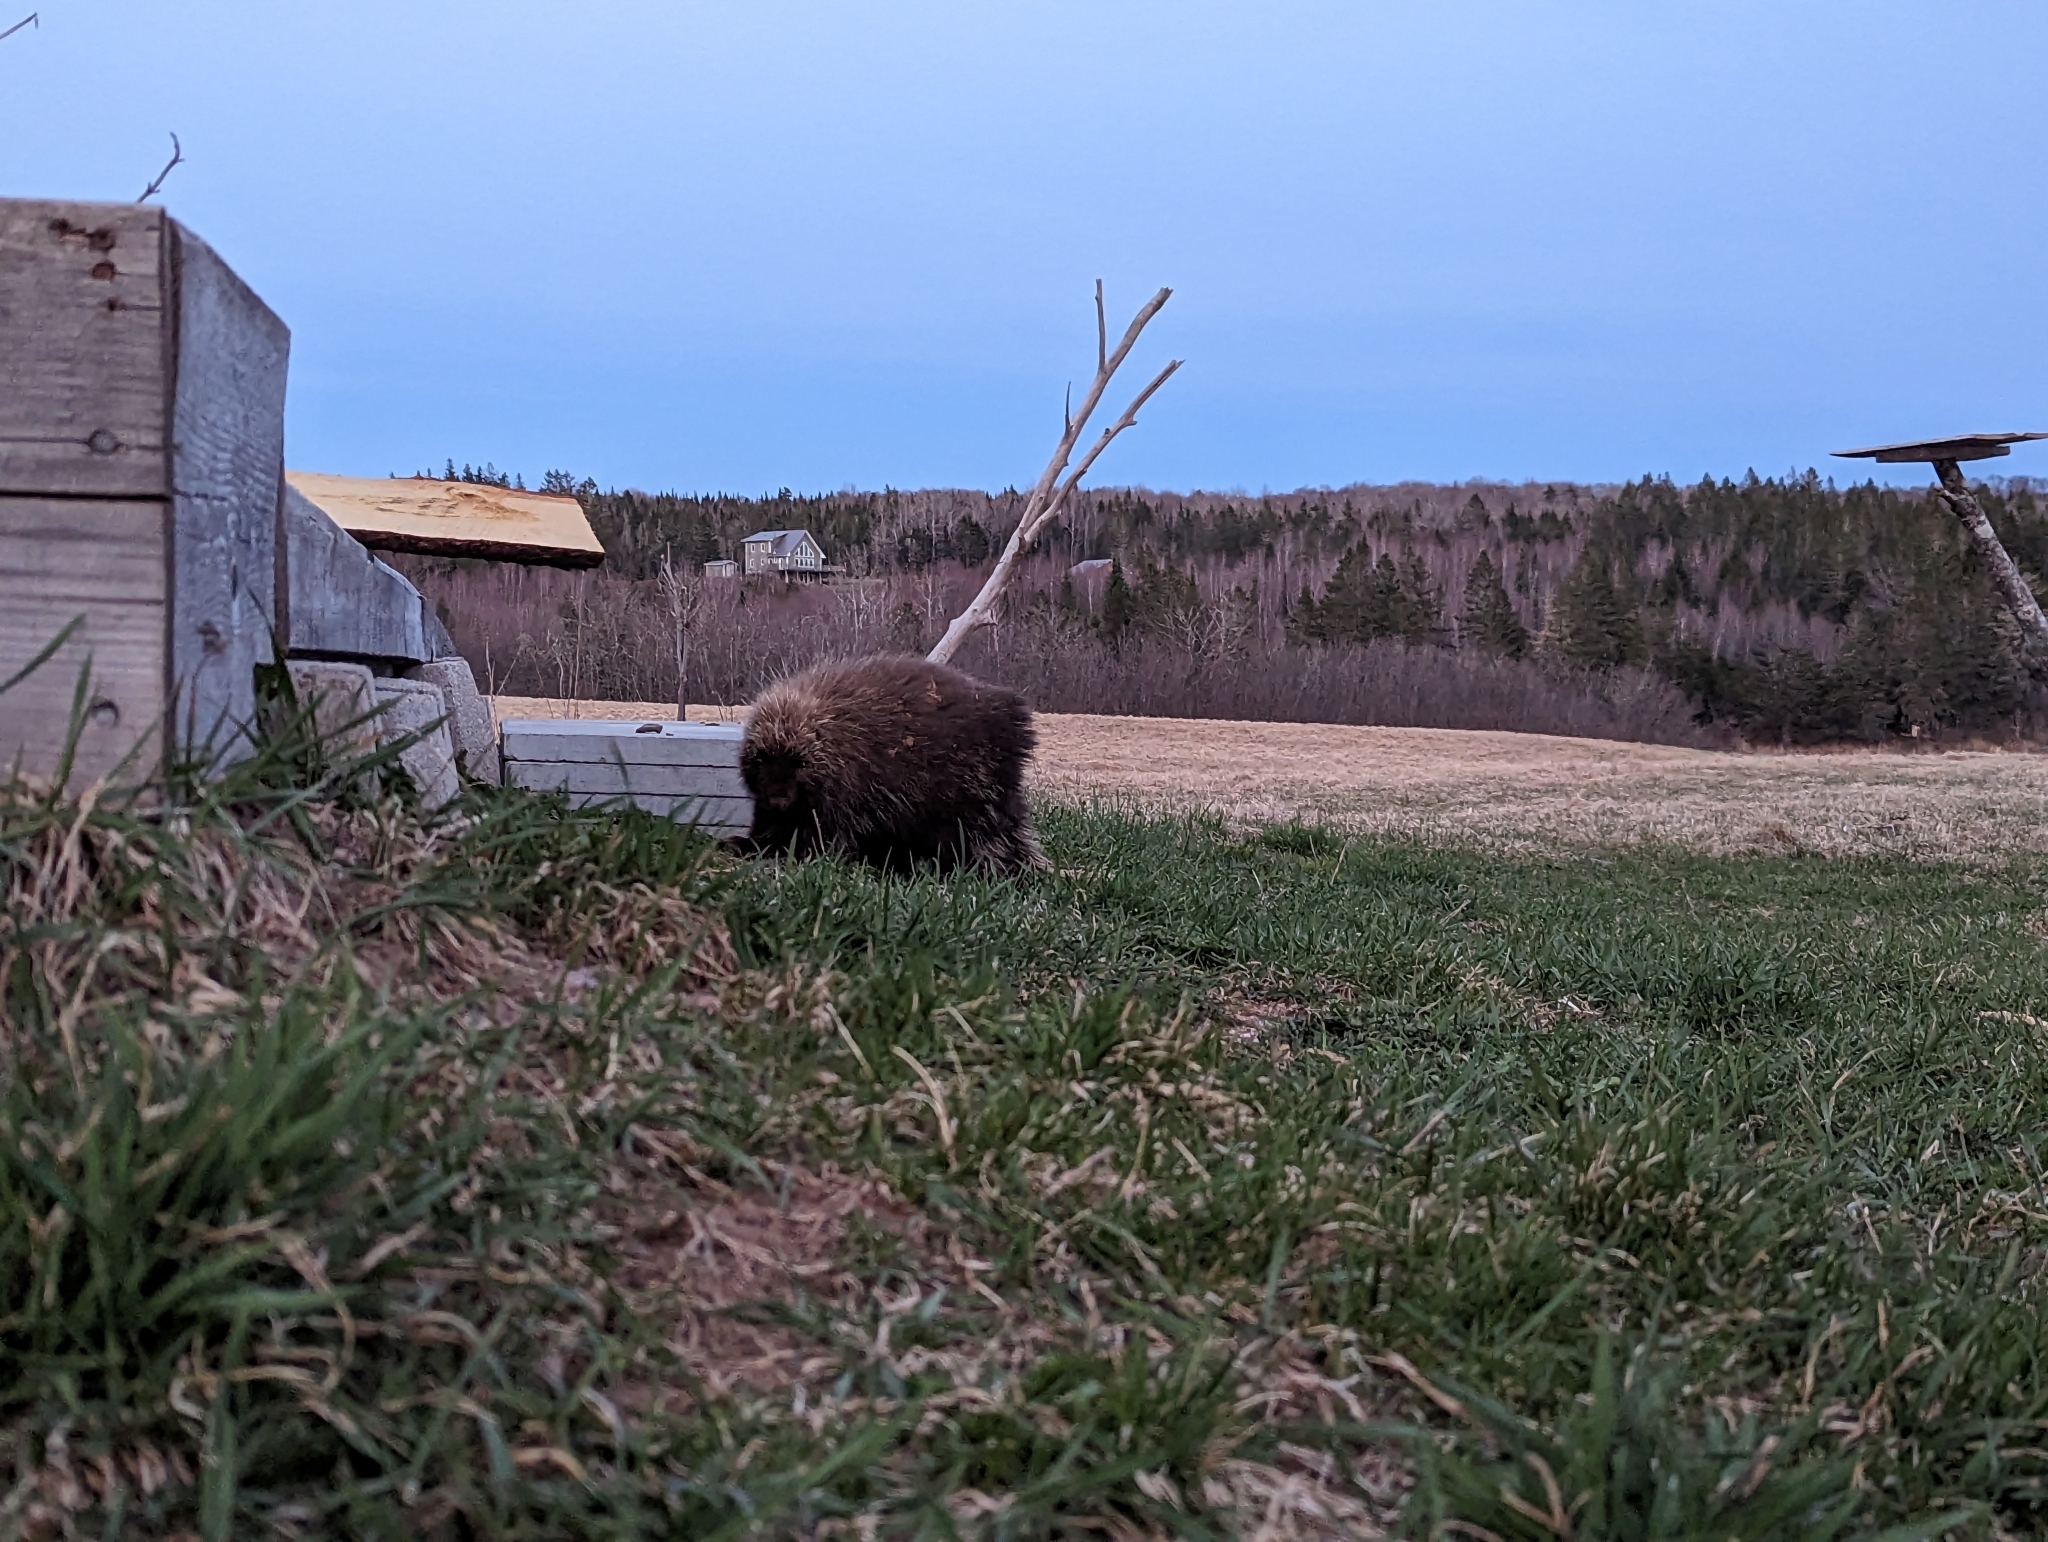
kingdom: Animalia
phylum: Chordata
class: Mammalia
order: Rodentia
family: Erethizontidae
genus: Erethizon
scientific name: Erethizon dorsatus
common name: North american porcupine
